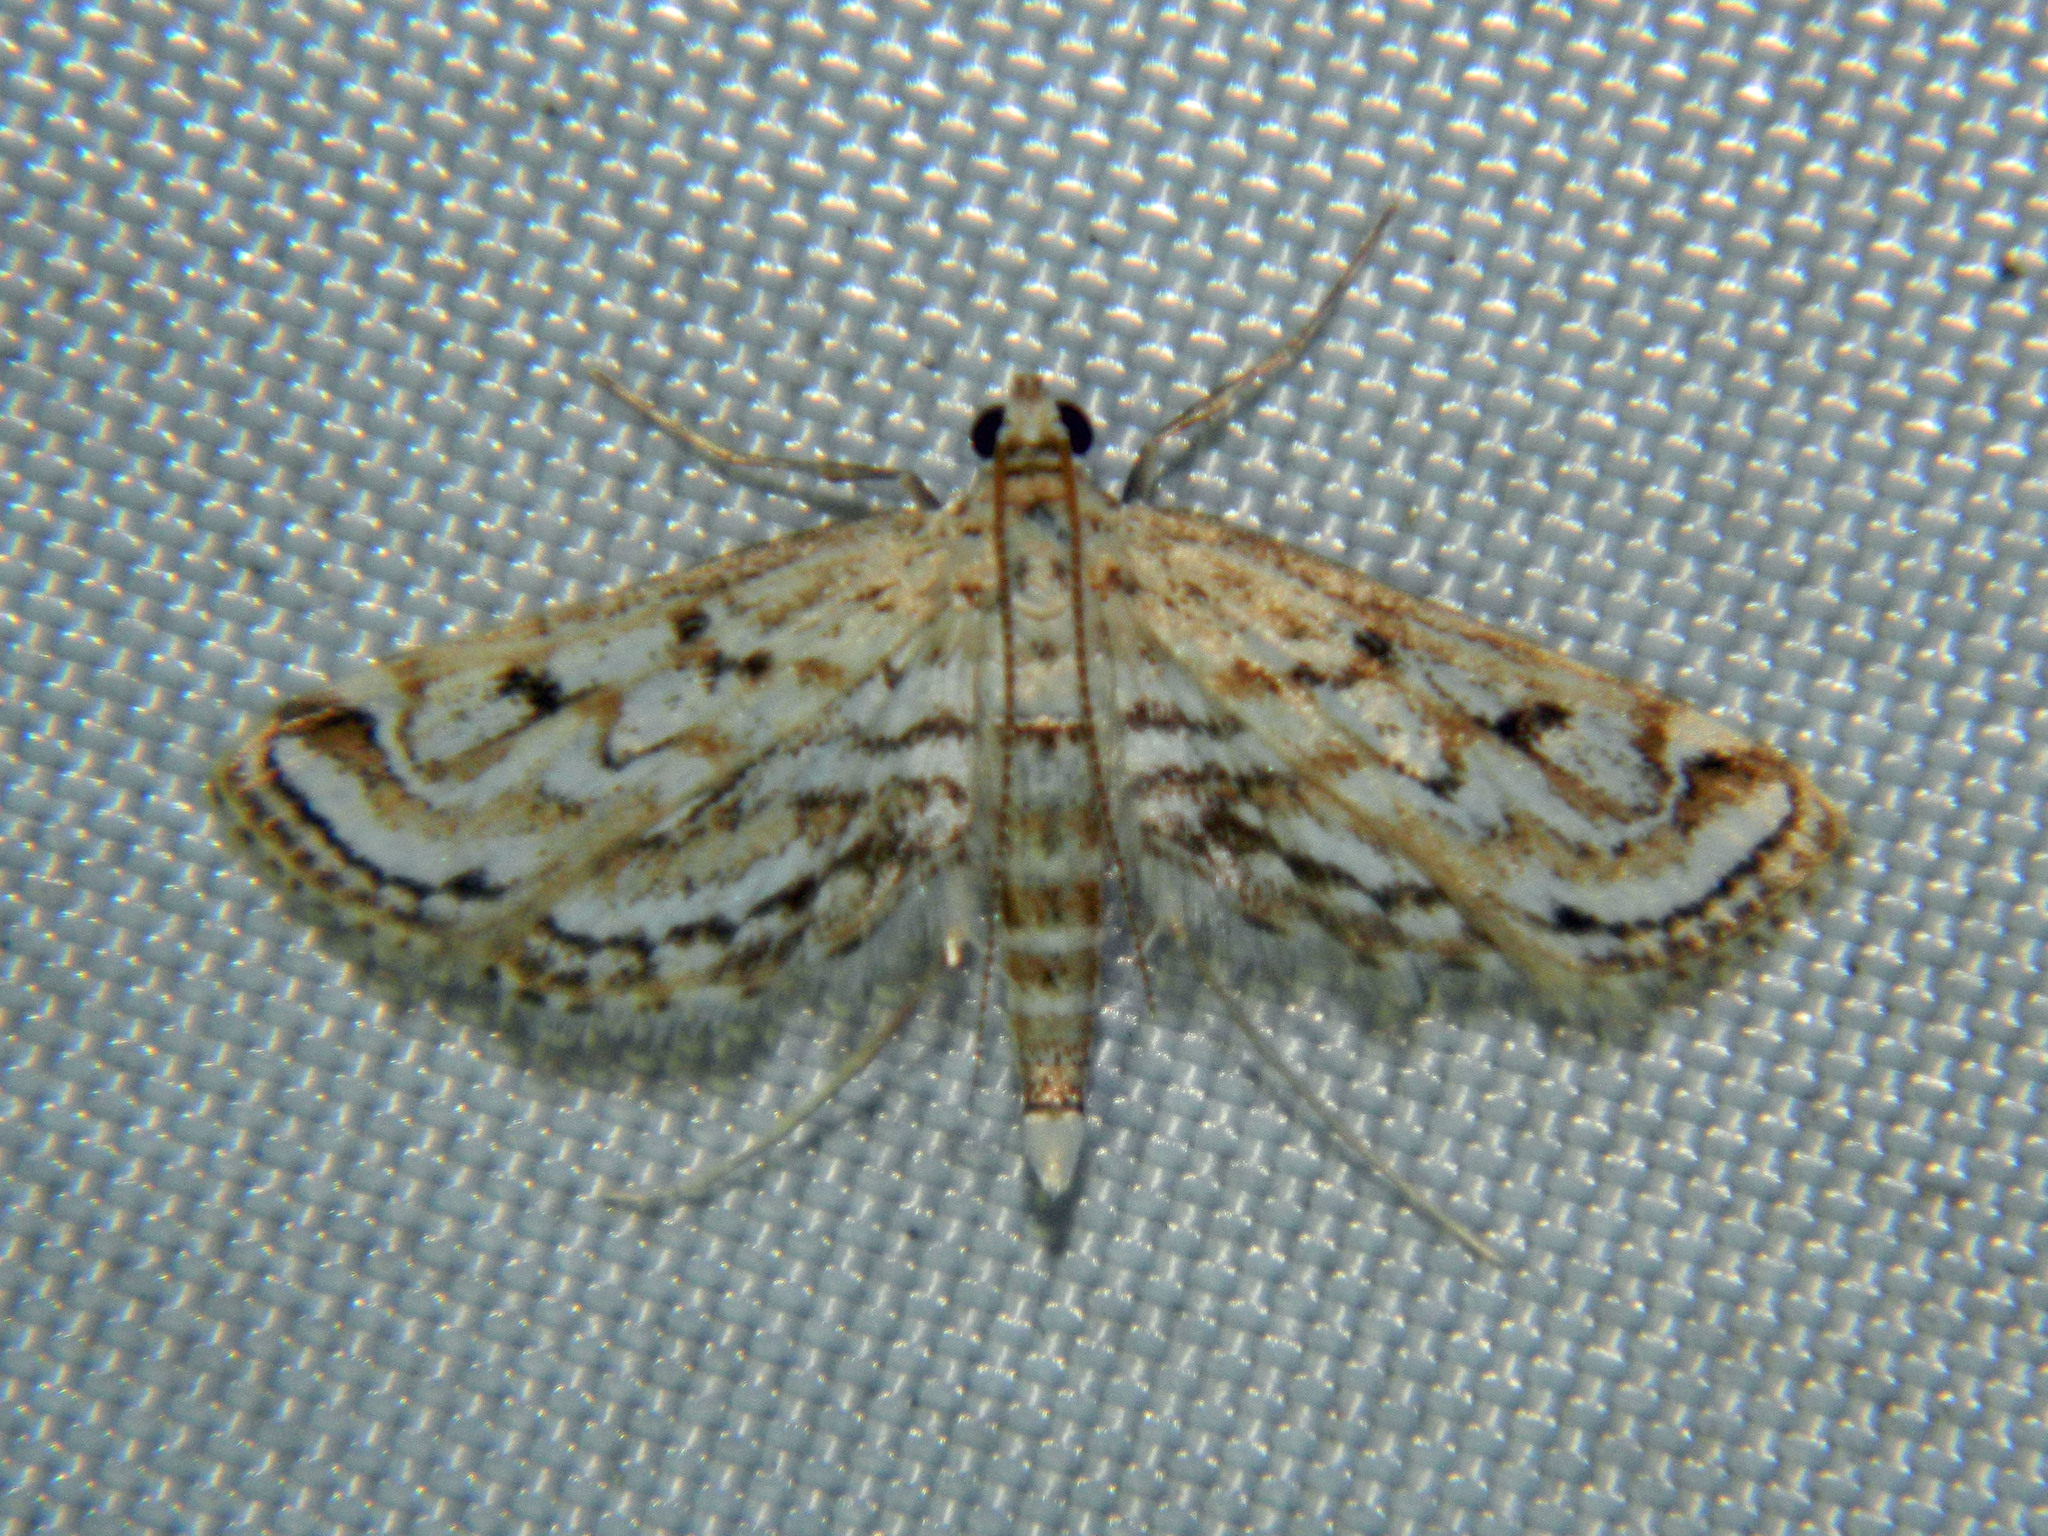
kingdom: Animalia
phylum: Arthropoda
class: Insecta
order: Lepidoptera
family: Crambidae
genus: Parapoynx
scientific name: Parapoynx allionealis
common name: Bladderwort casemaker
